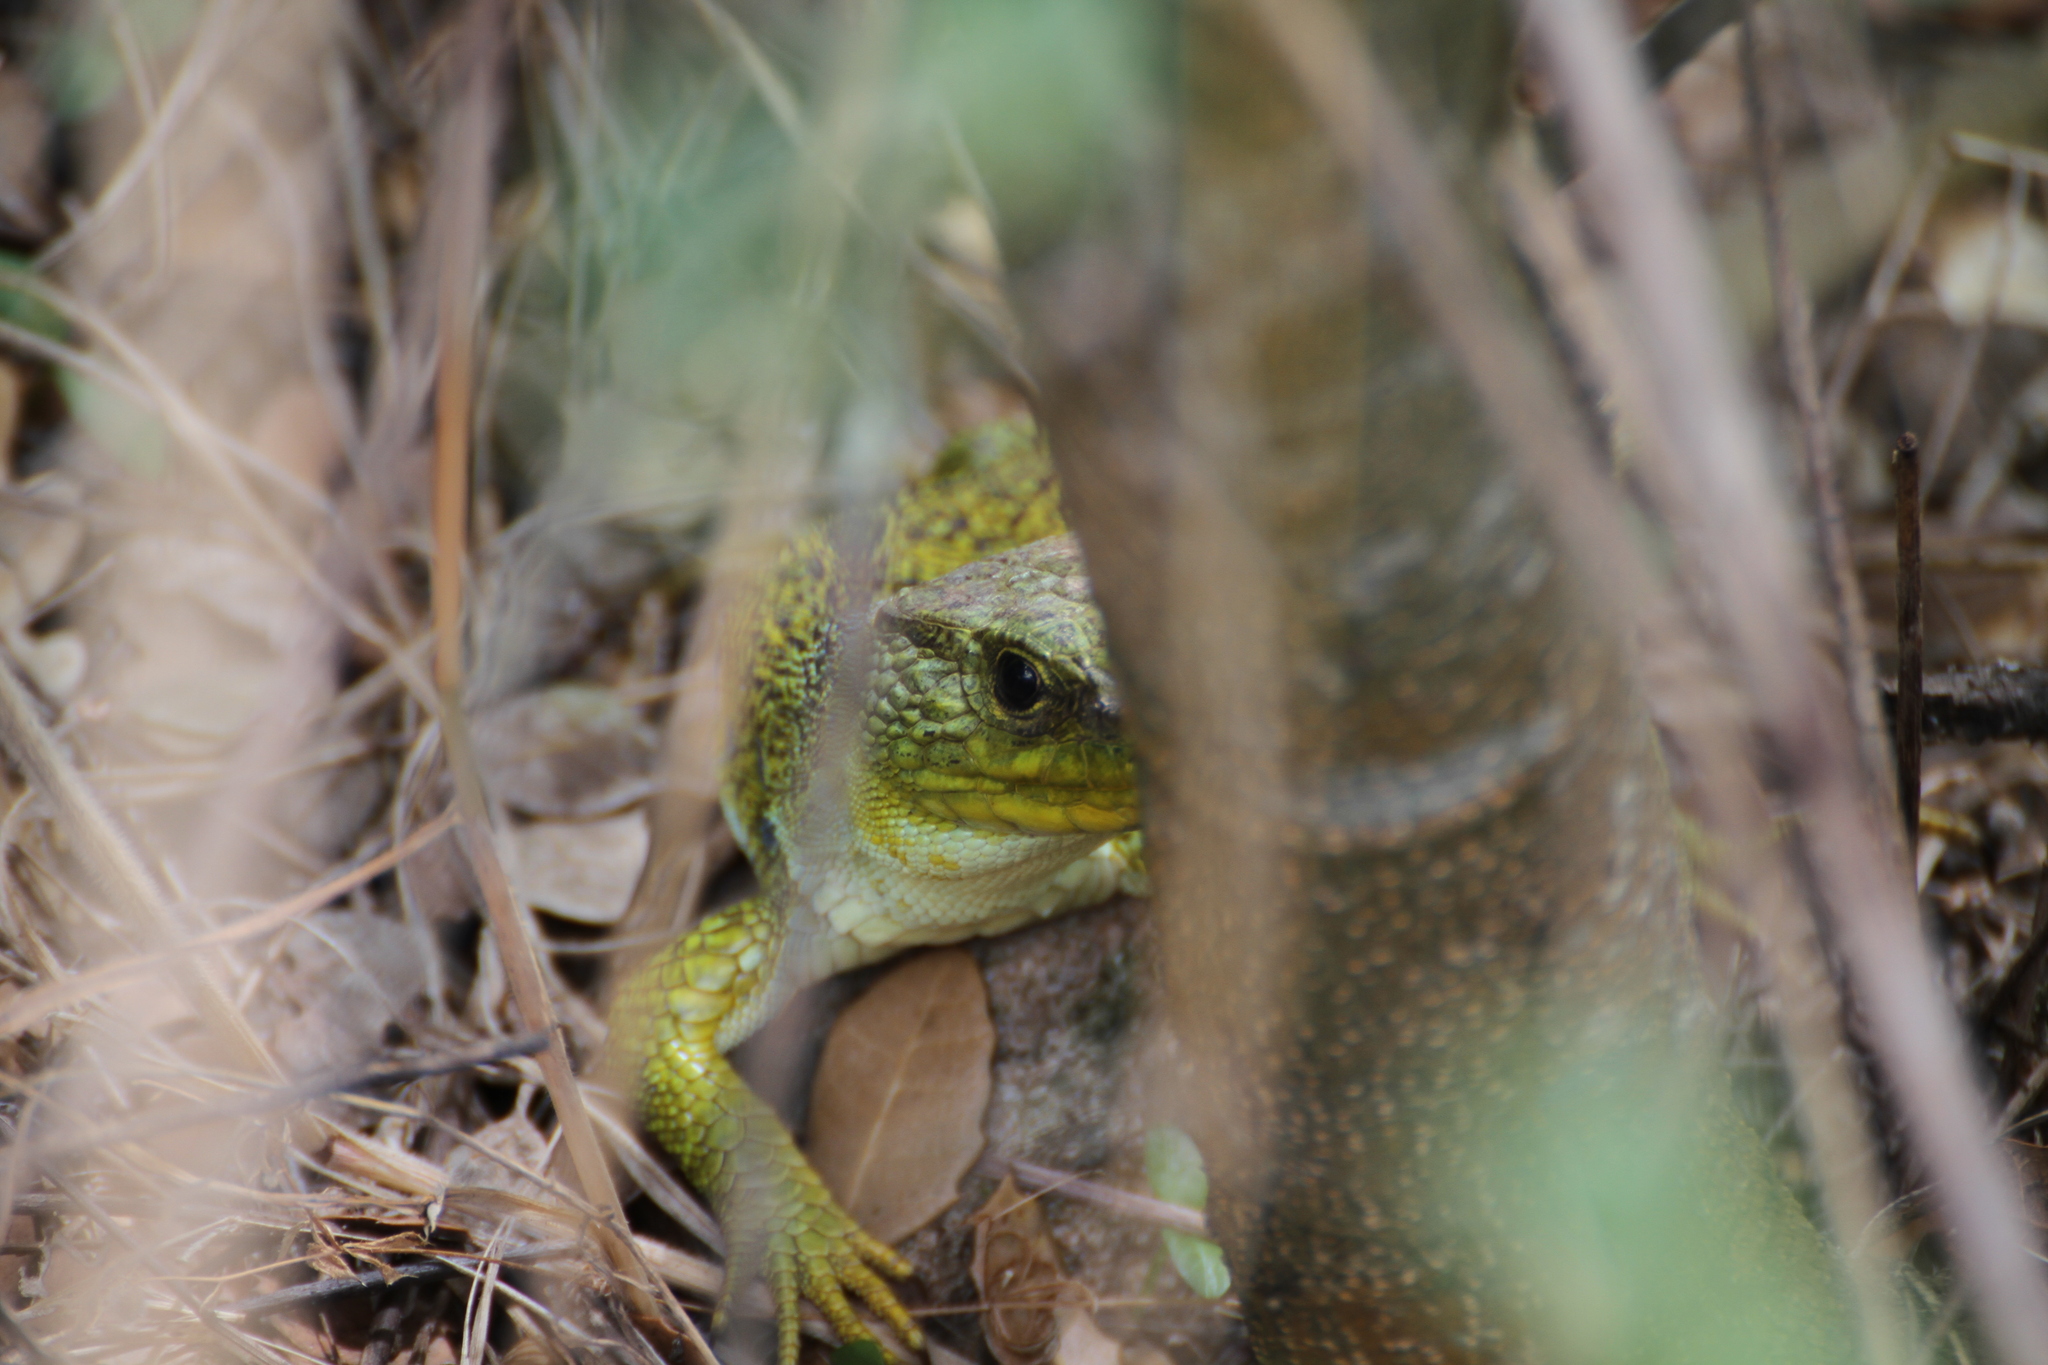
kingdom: Animalia
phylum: Chordata
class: Squamata
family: Lacertidae
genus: Timon
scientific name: Timon lepidus
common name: Ocellated lizard
